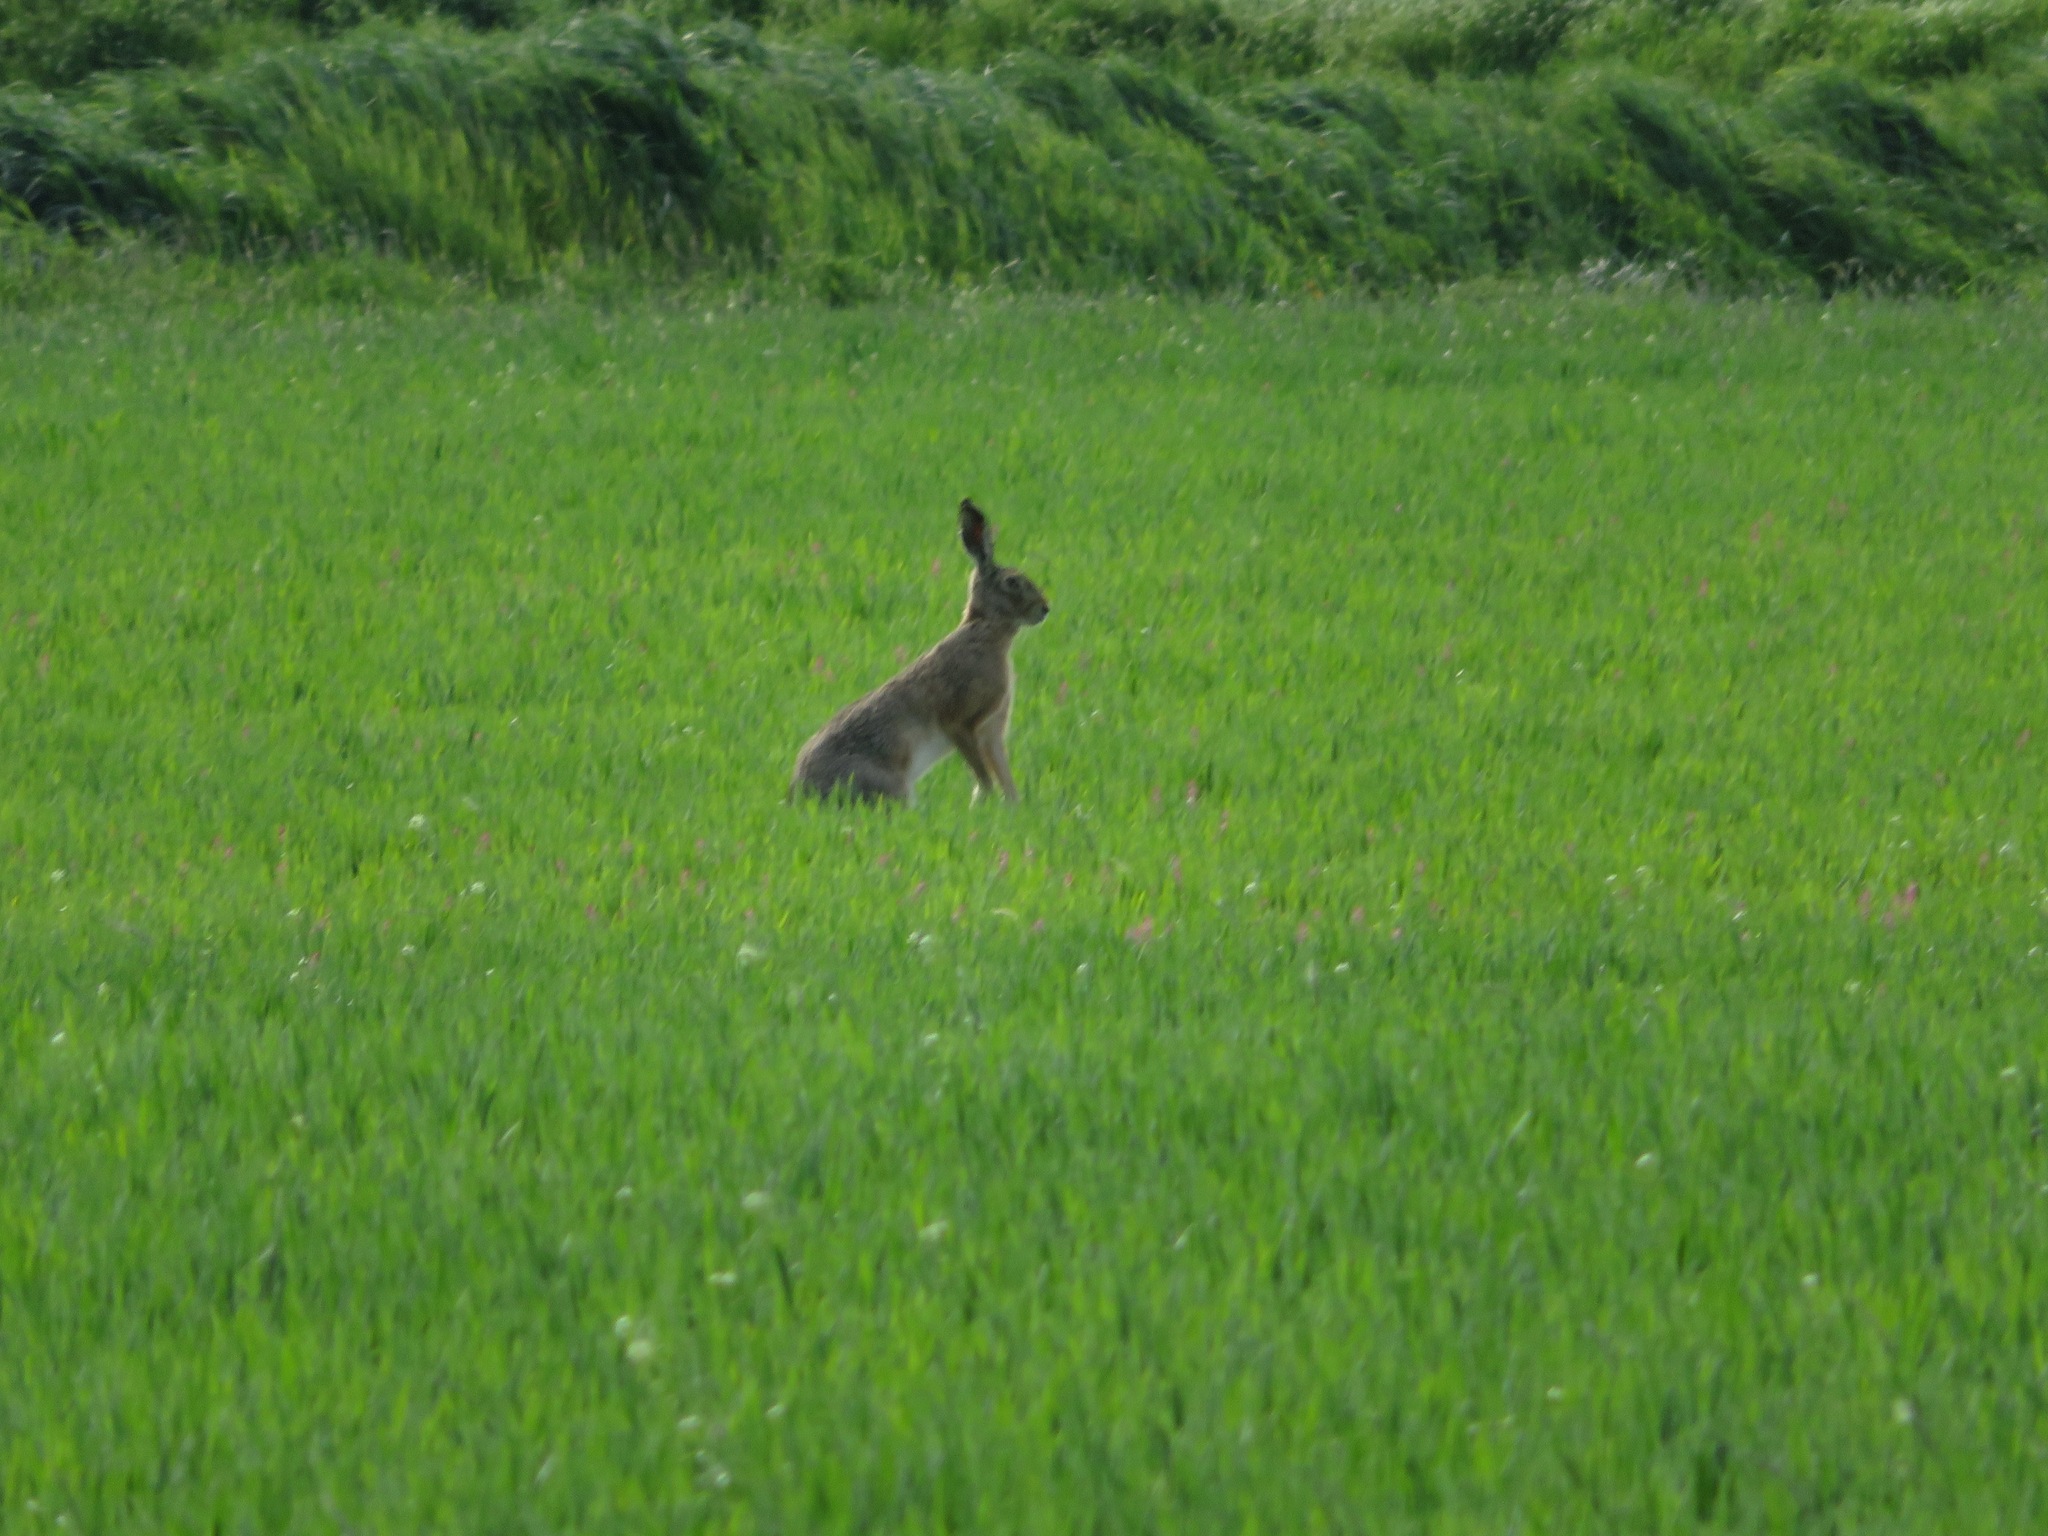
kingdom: Animalia
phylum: Chordata
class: Mammalia
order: Lagomorpha
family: Leporidae
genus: Lepus
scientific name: Lepus europaeus
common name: European hare
